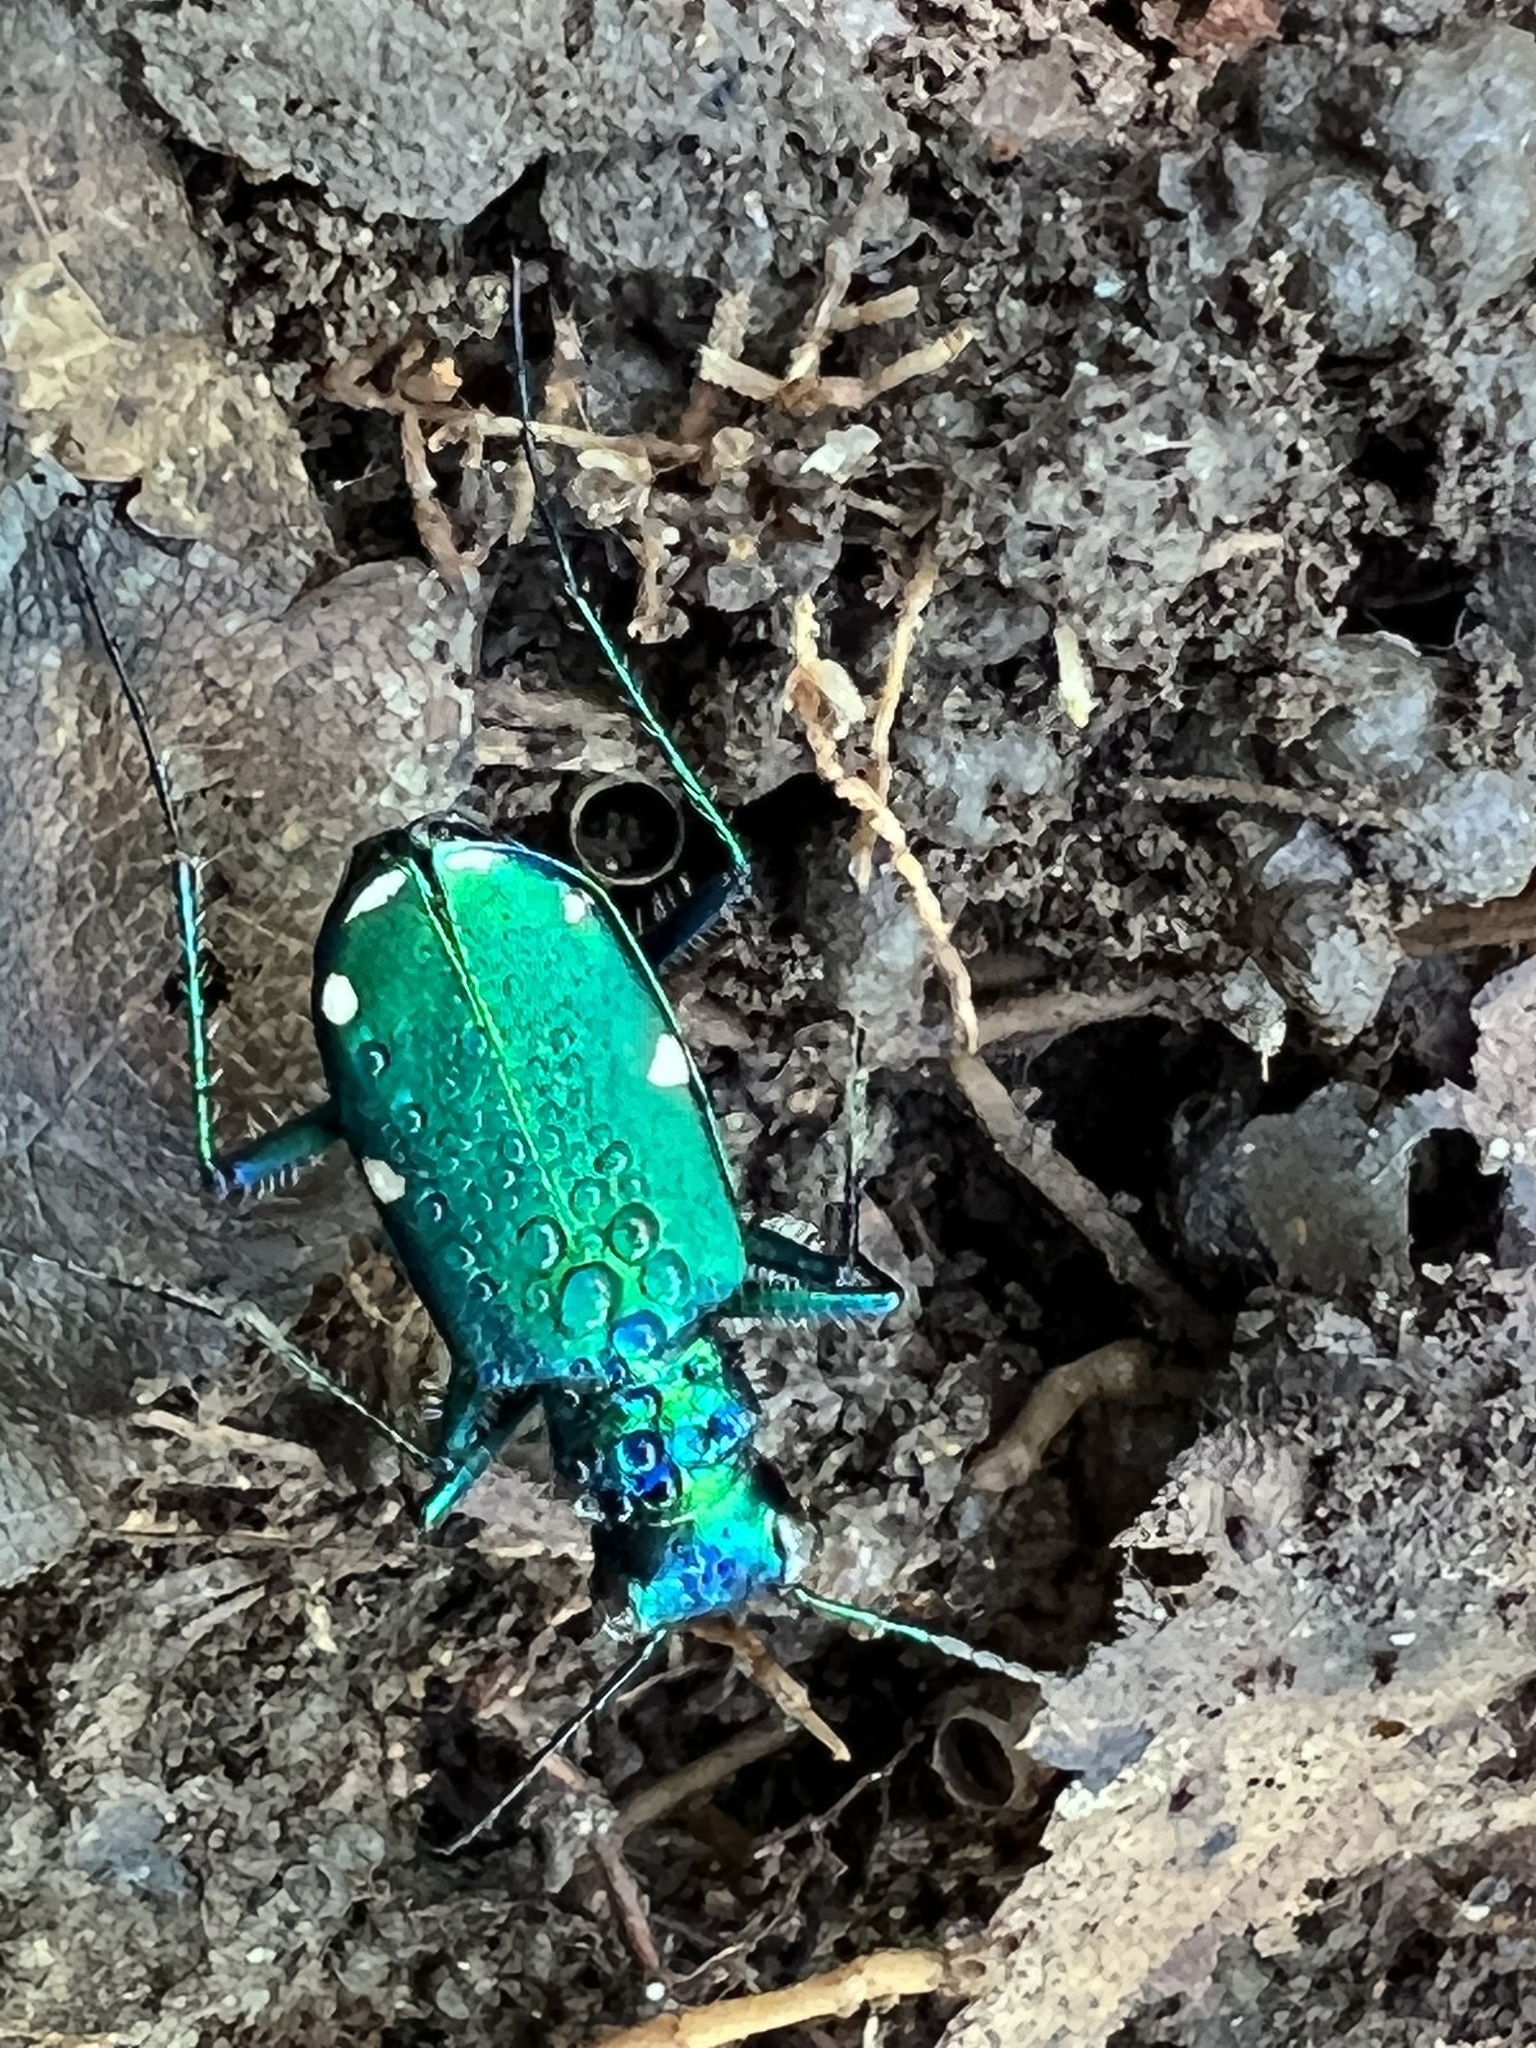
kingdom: Animalia
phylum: Arthropoda
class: Insecta
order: Coleoptera
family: Carabidae
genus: Cicindela
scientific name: Cicindela sexguttata
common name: Six-spotted tiger beetle
